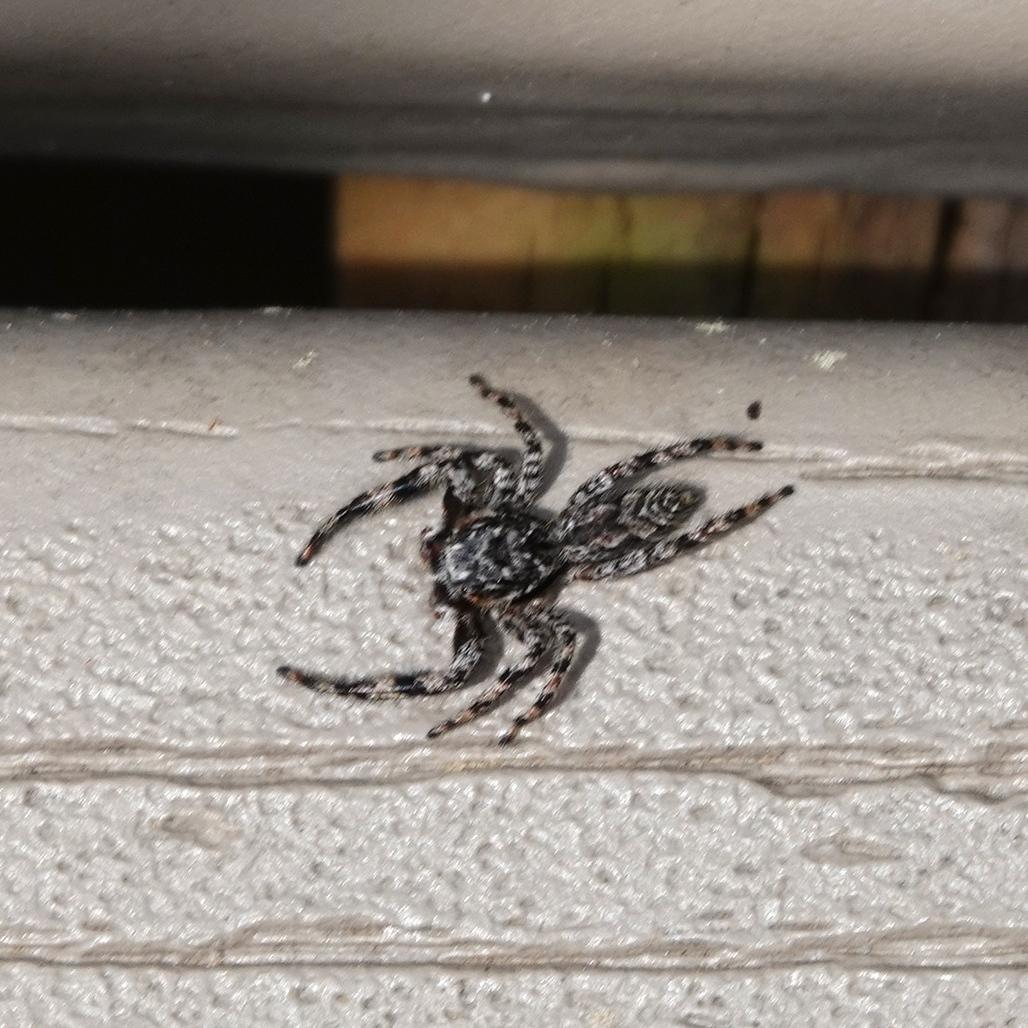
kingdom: Animalia
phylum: Arthropoda
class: Arachnida
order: Araneae
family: Salticidae
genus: Platycryptus
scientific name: Platycryptus undatus
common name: Tan jumping spider
